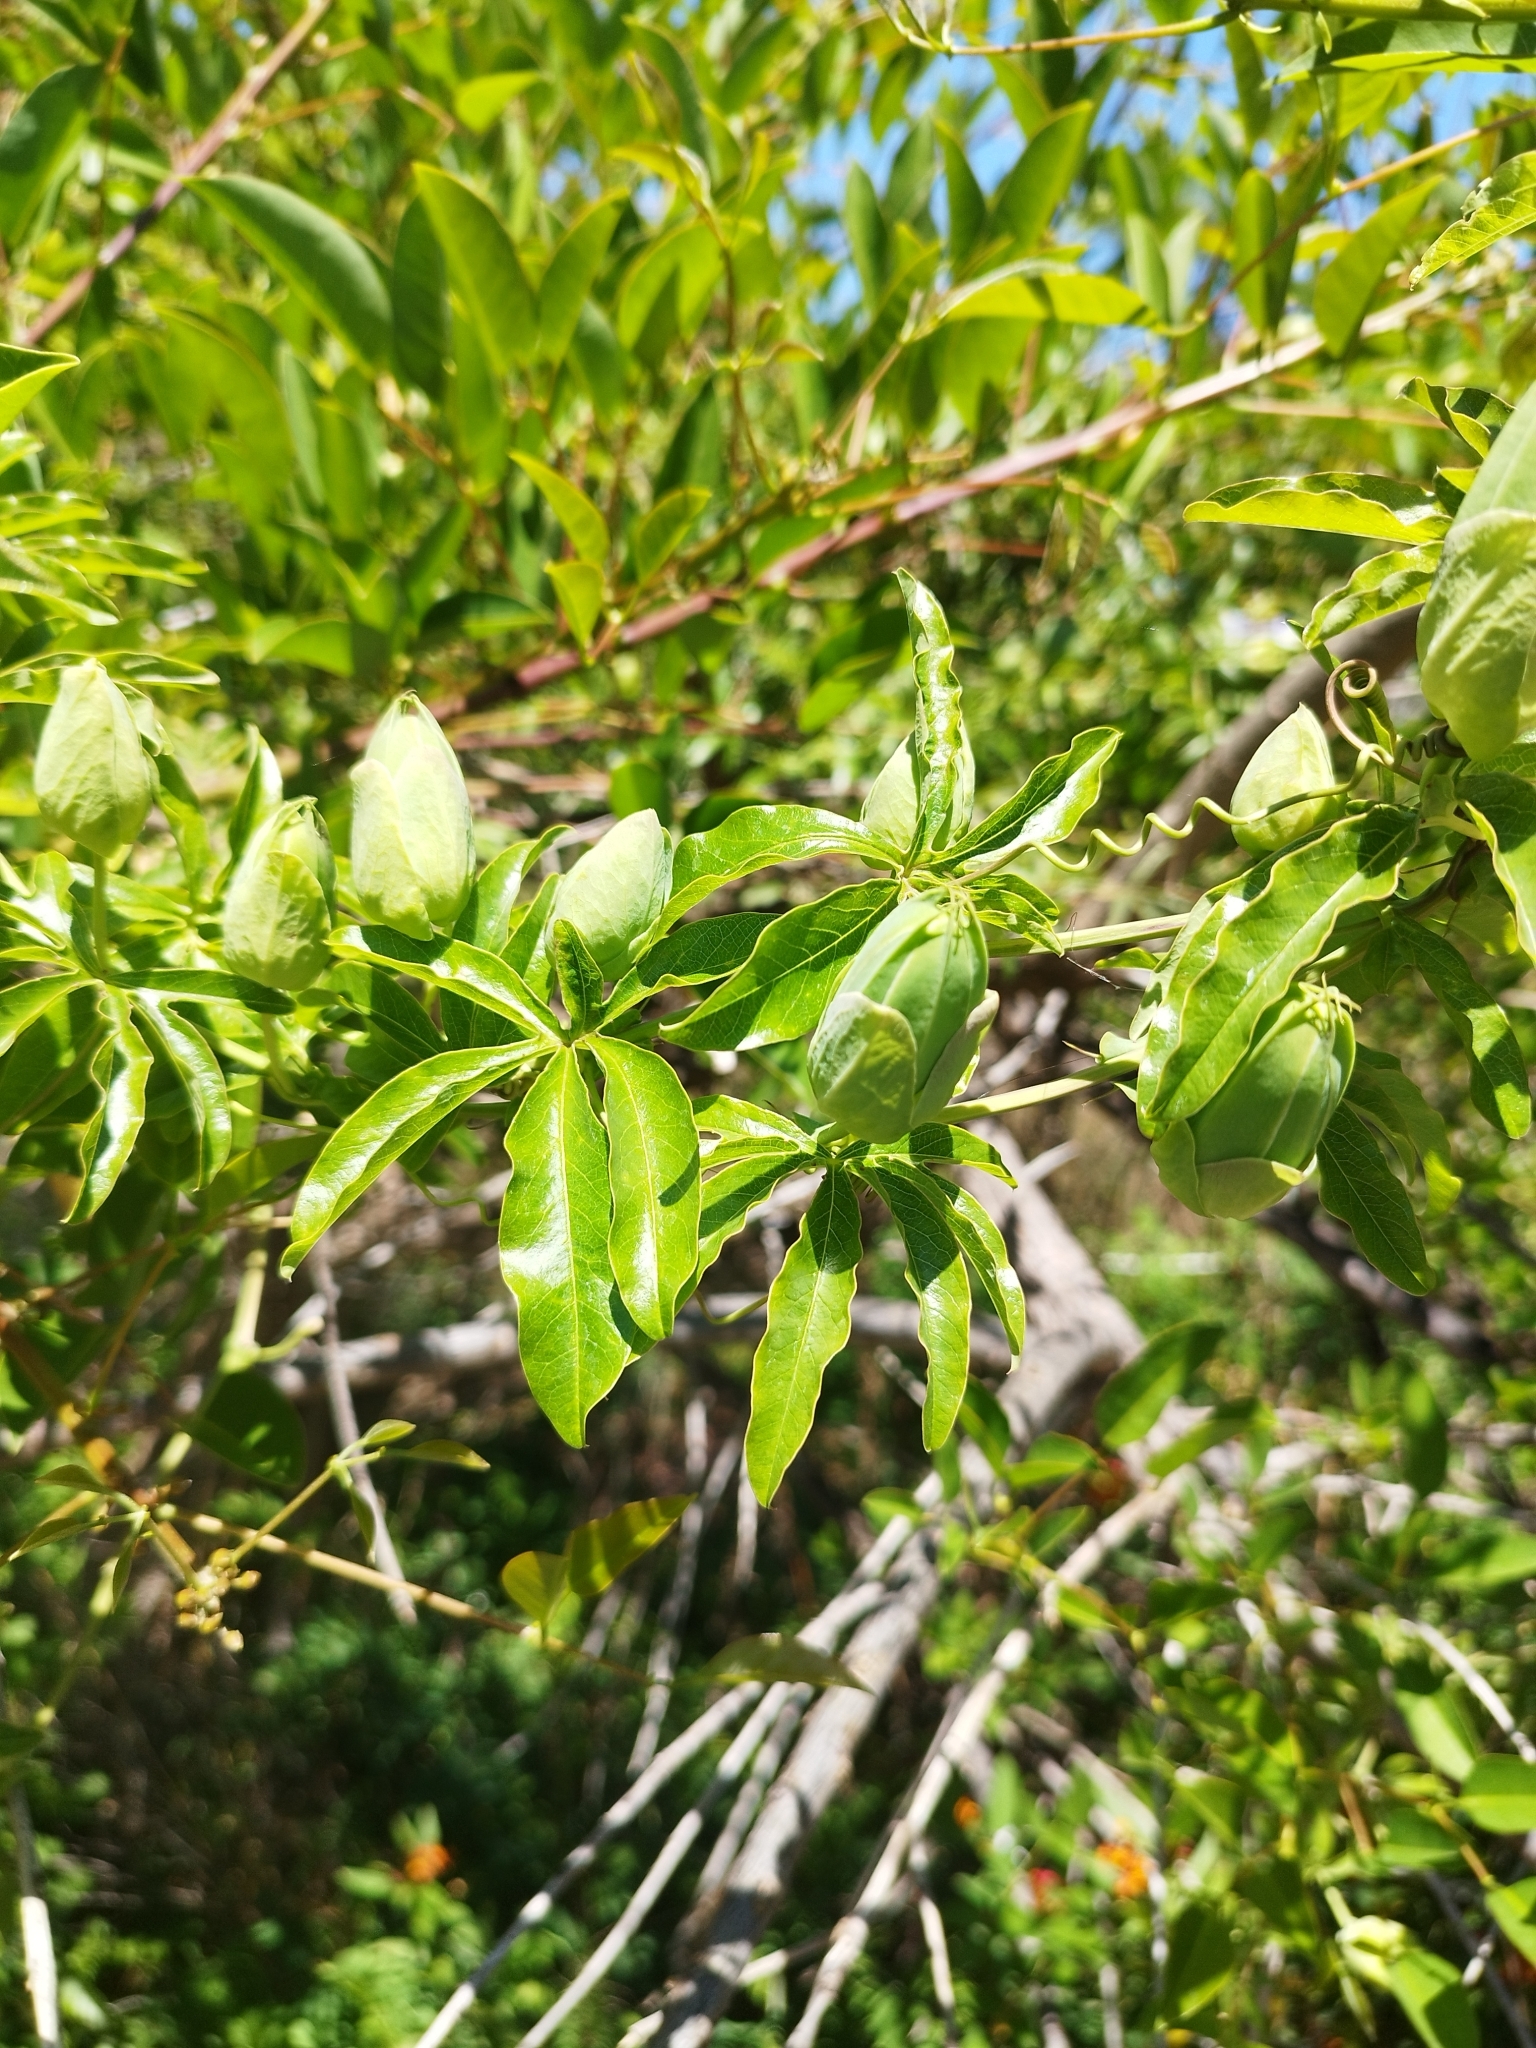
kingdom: Plantae
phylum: Tracheophyta
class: Magnoliopsida
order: Malpighiales
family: Passifloraceae
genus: Passiflora
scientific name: Passiflora caerulea
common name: Blue passionflower
